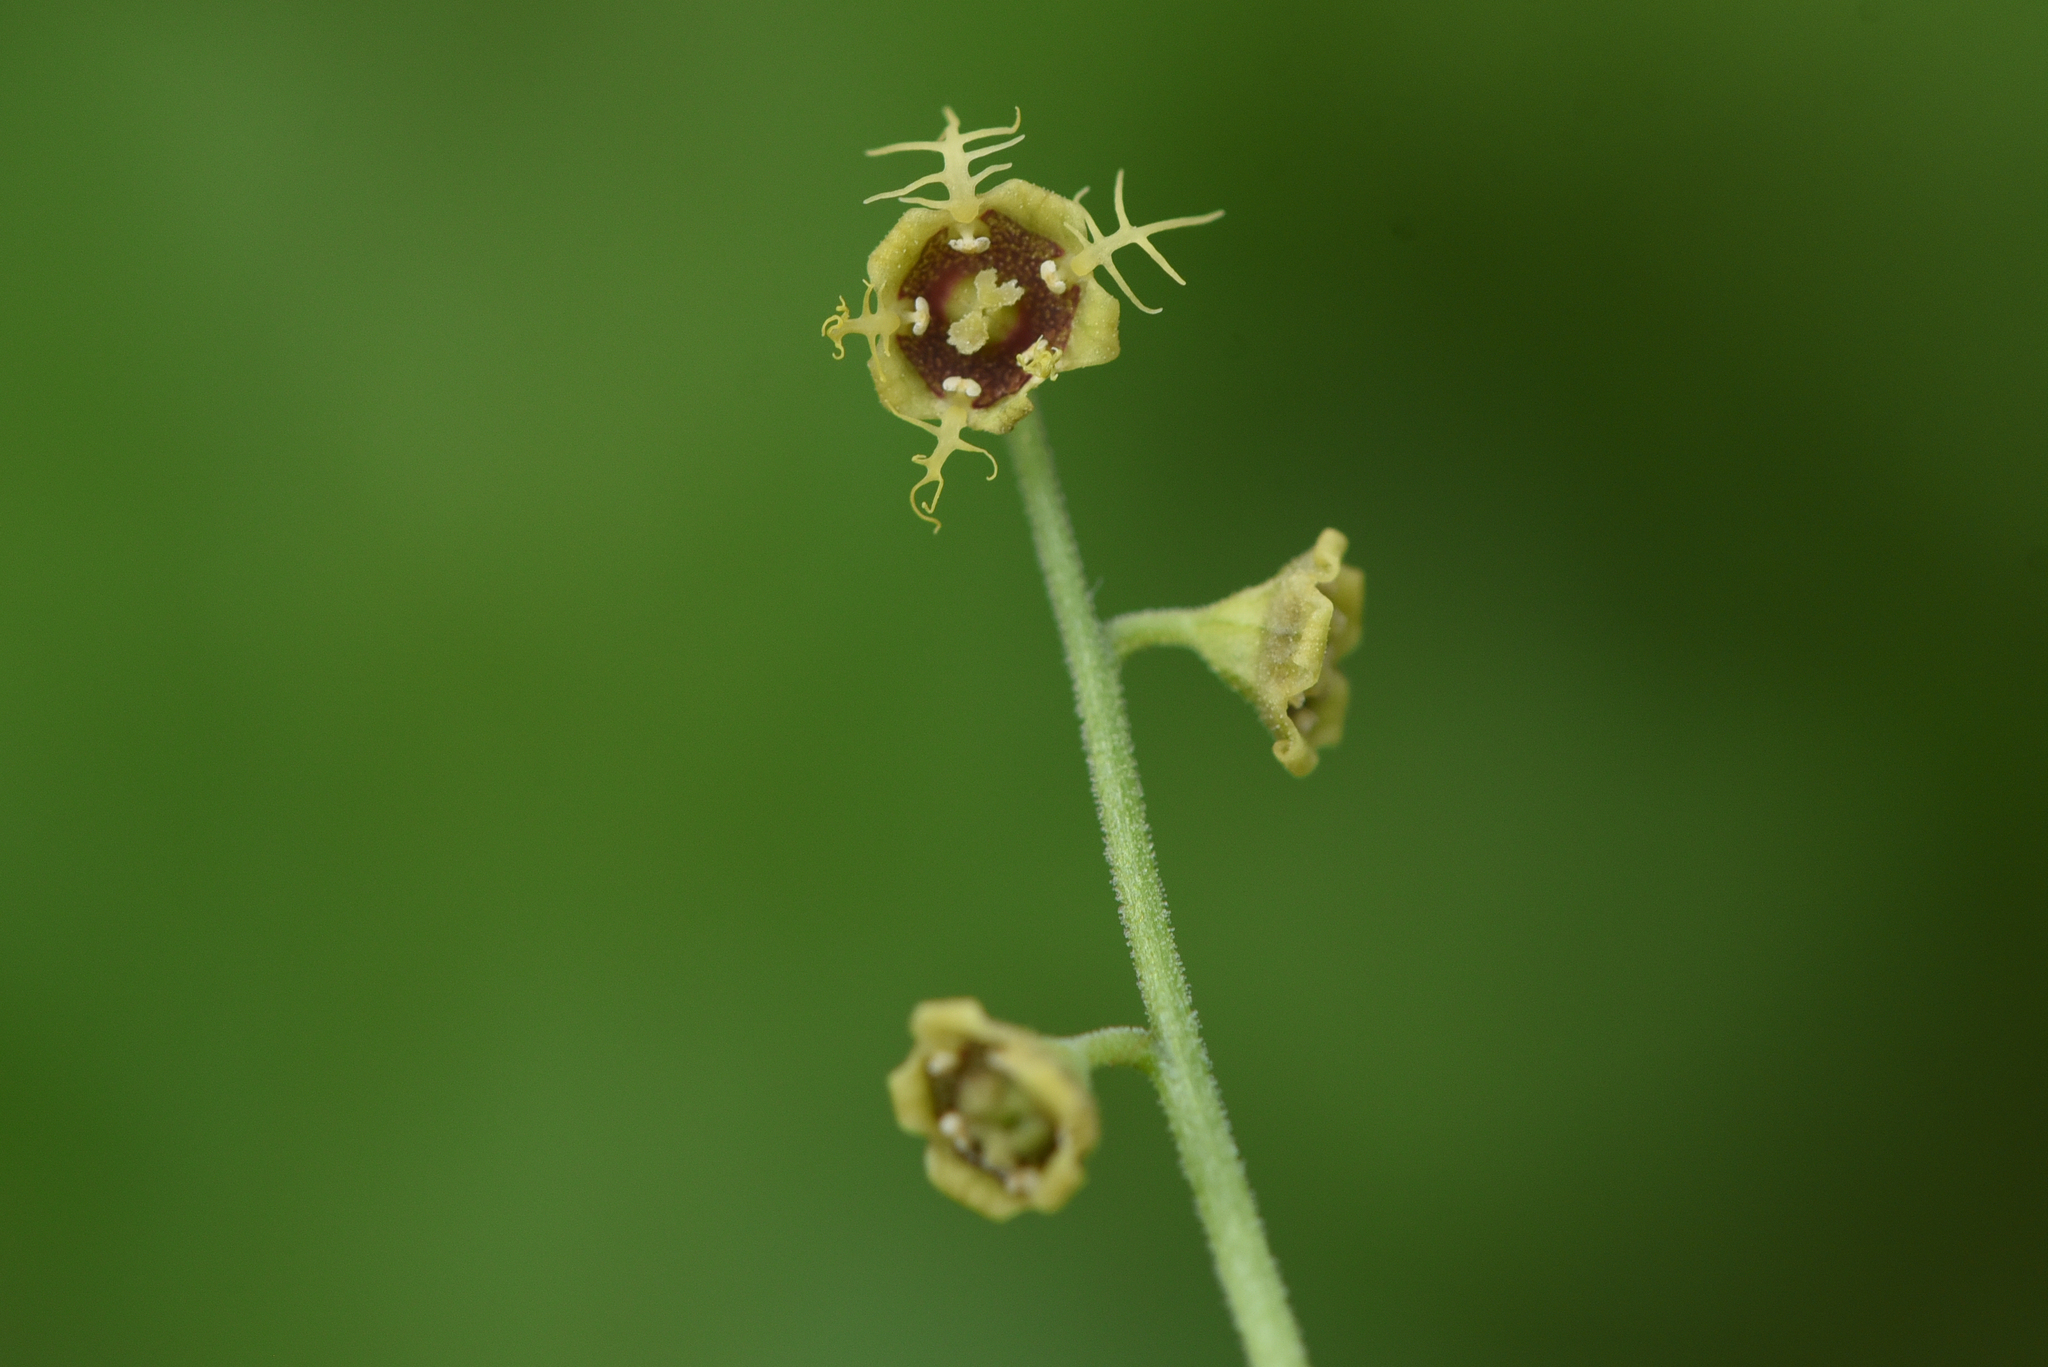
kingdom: Plantae
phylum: Tracheophyta
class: Magnoliopsida
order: Saxifragales
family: Saxifragaceae
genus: Pectiantia
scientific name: Pectiantia pentandra
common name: Alpine bishop's-cap
